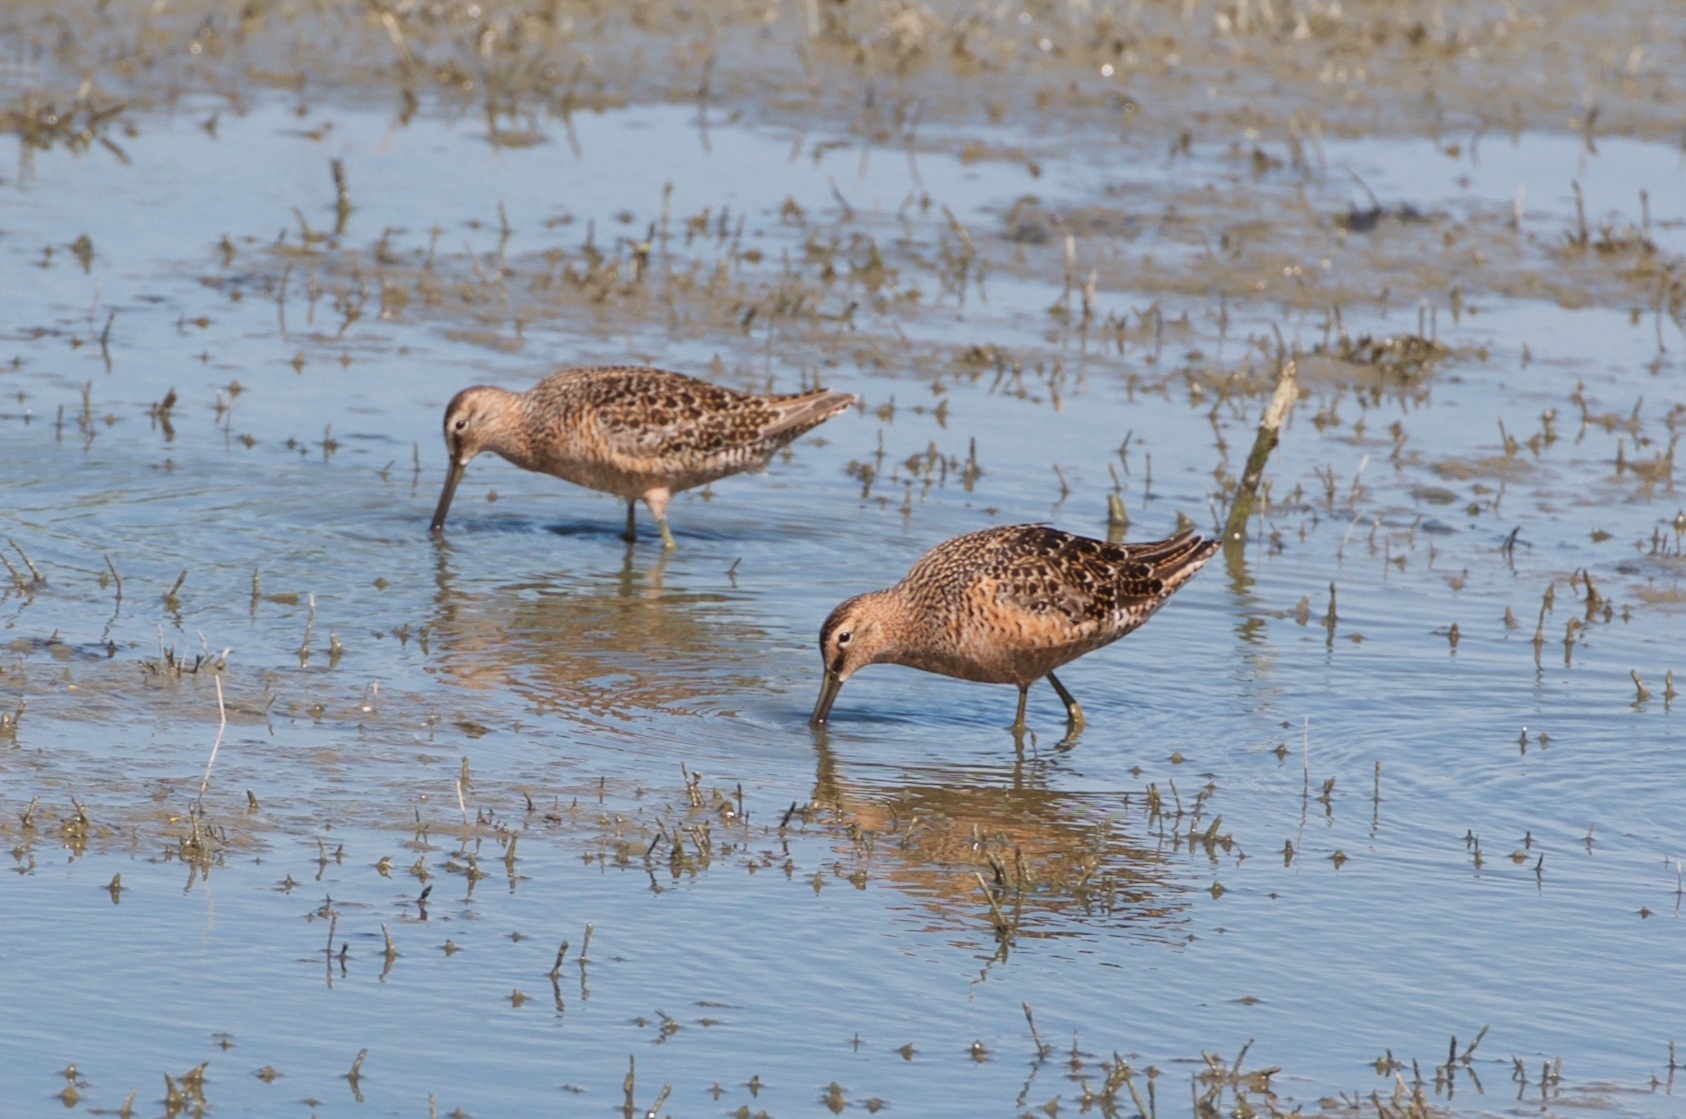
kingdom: Animalia
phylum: Chordata
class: Aves
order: Charadriiformes
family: Scolopacidae
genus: Limnodromus
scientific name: Limnodromus scolopaceus
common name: Long-billed dowitcher
